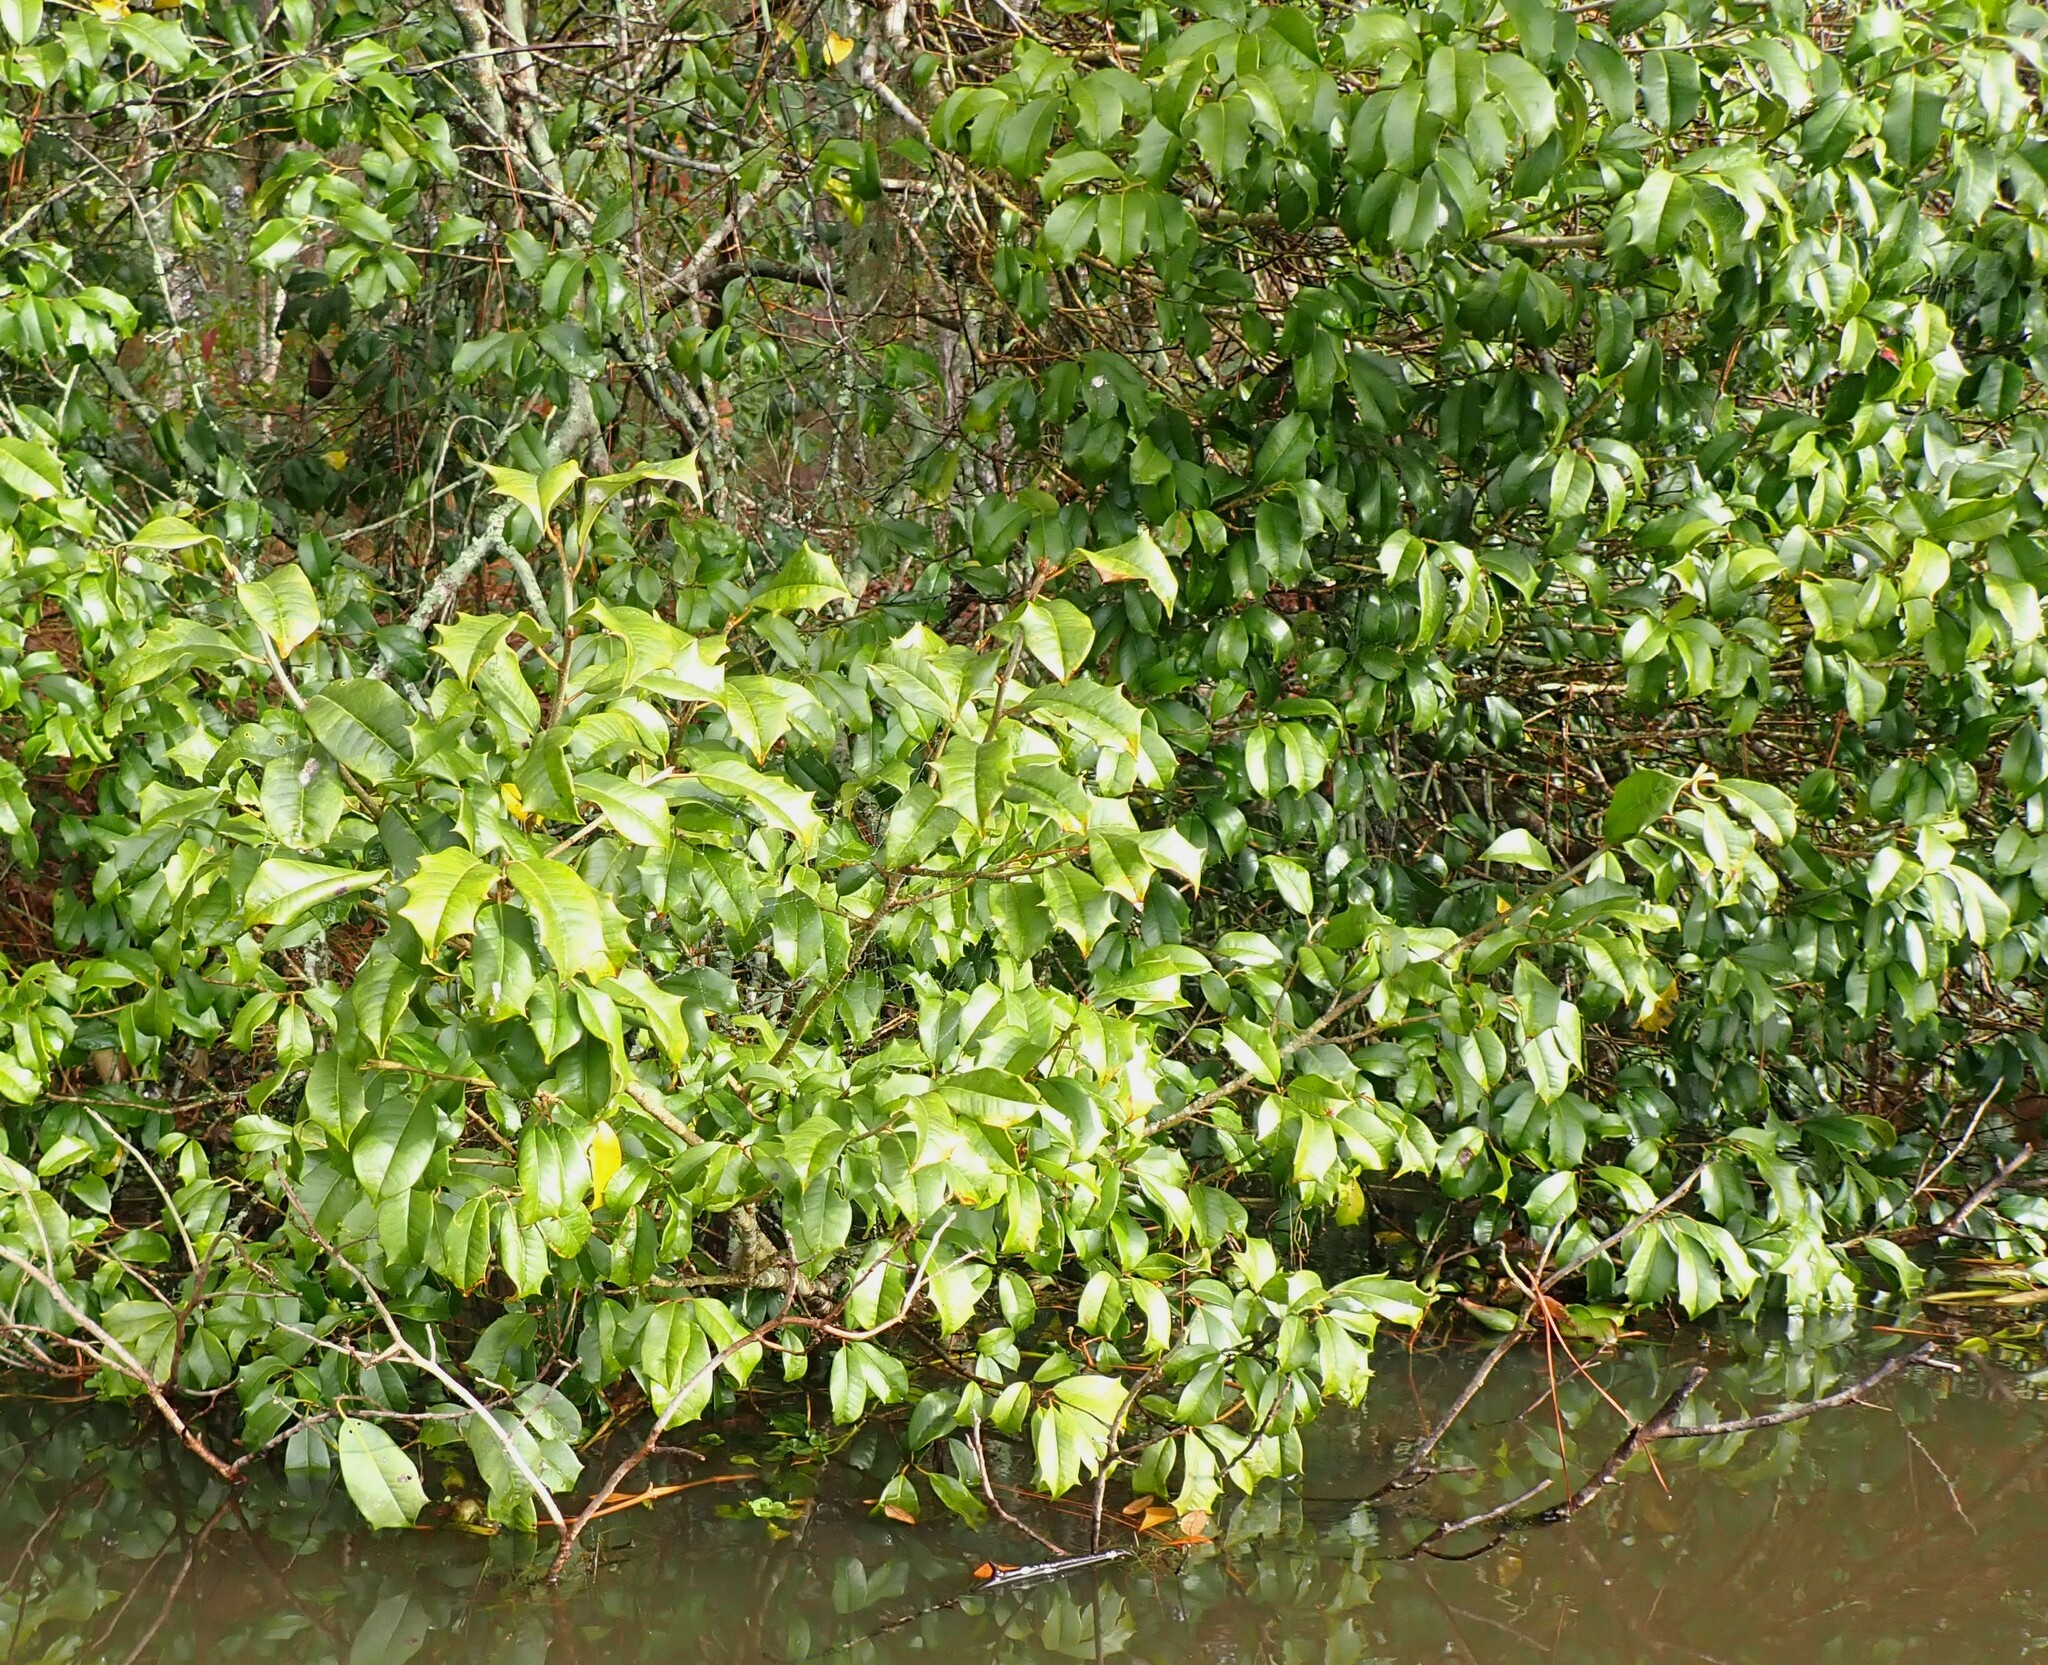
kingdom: Plantae
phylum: Tracheophyta
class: Magnoliopsida
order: Aquifoliales
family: Aquifoliaceae
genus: Ilex
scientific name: Ilex opaca
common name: American holly
